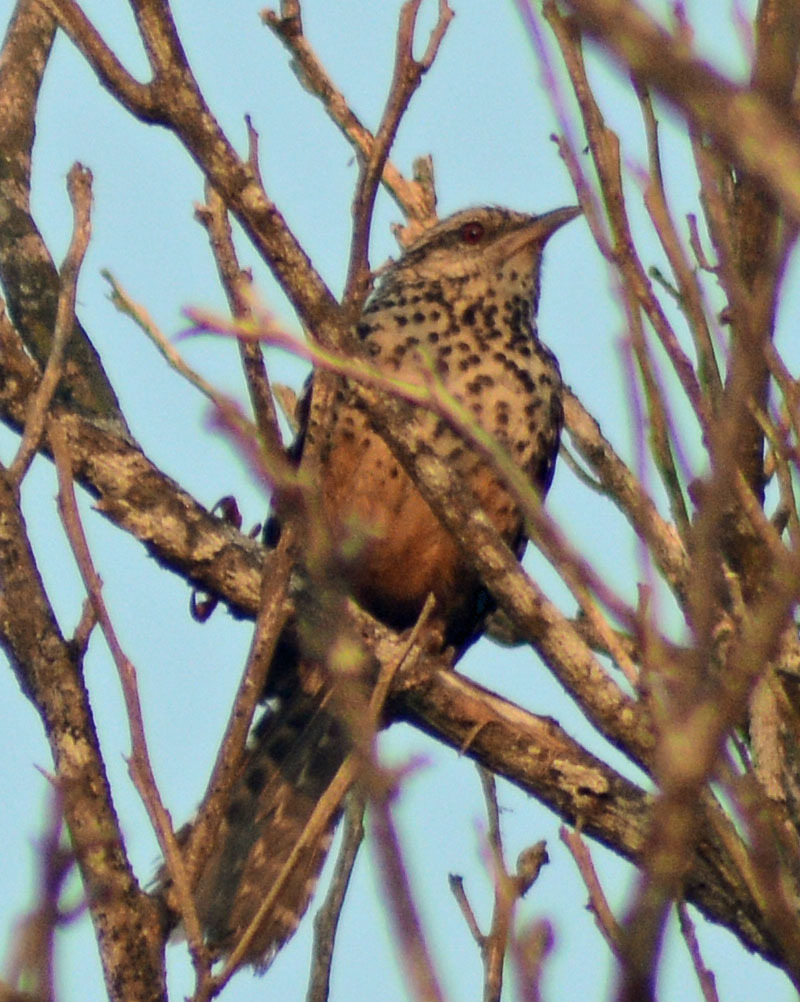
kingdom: Animalia
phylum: Chordata
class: Aves
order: Passeriformes
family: Troglodytidae
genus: Campylorhynchus
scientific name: Campylorhynchus zonatus
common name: Band-backed wren
